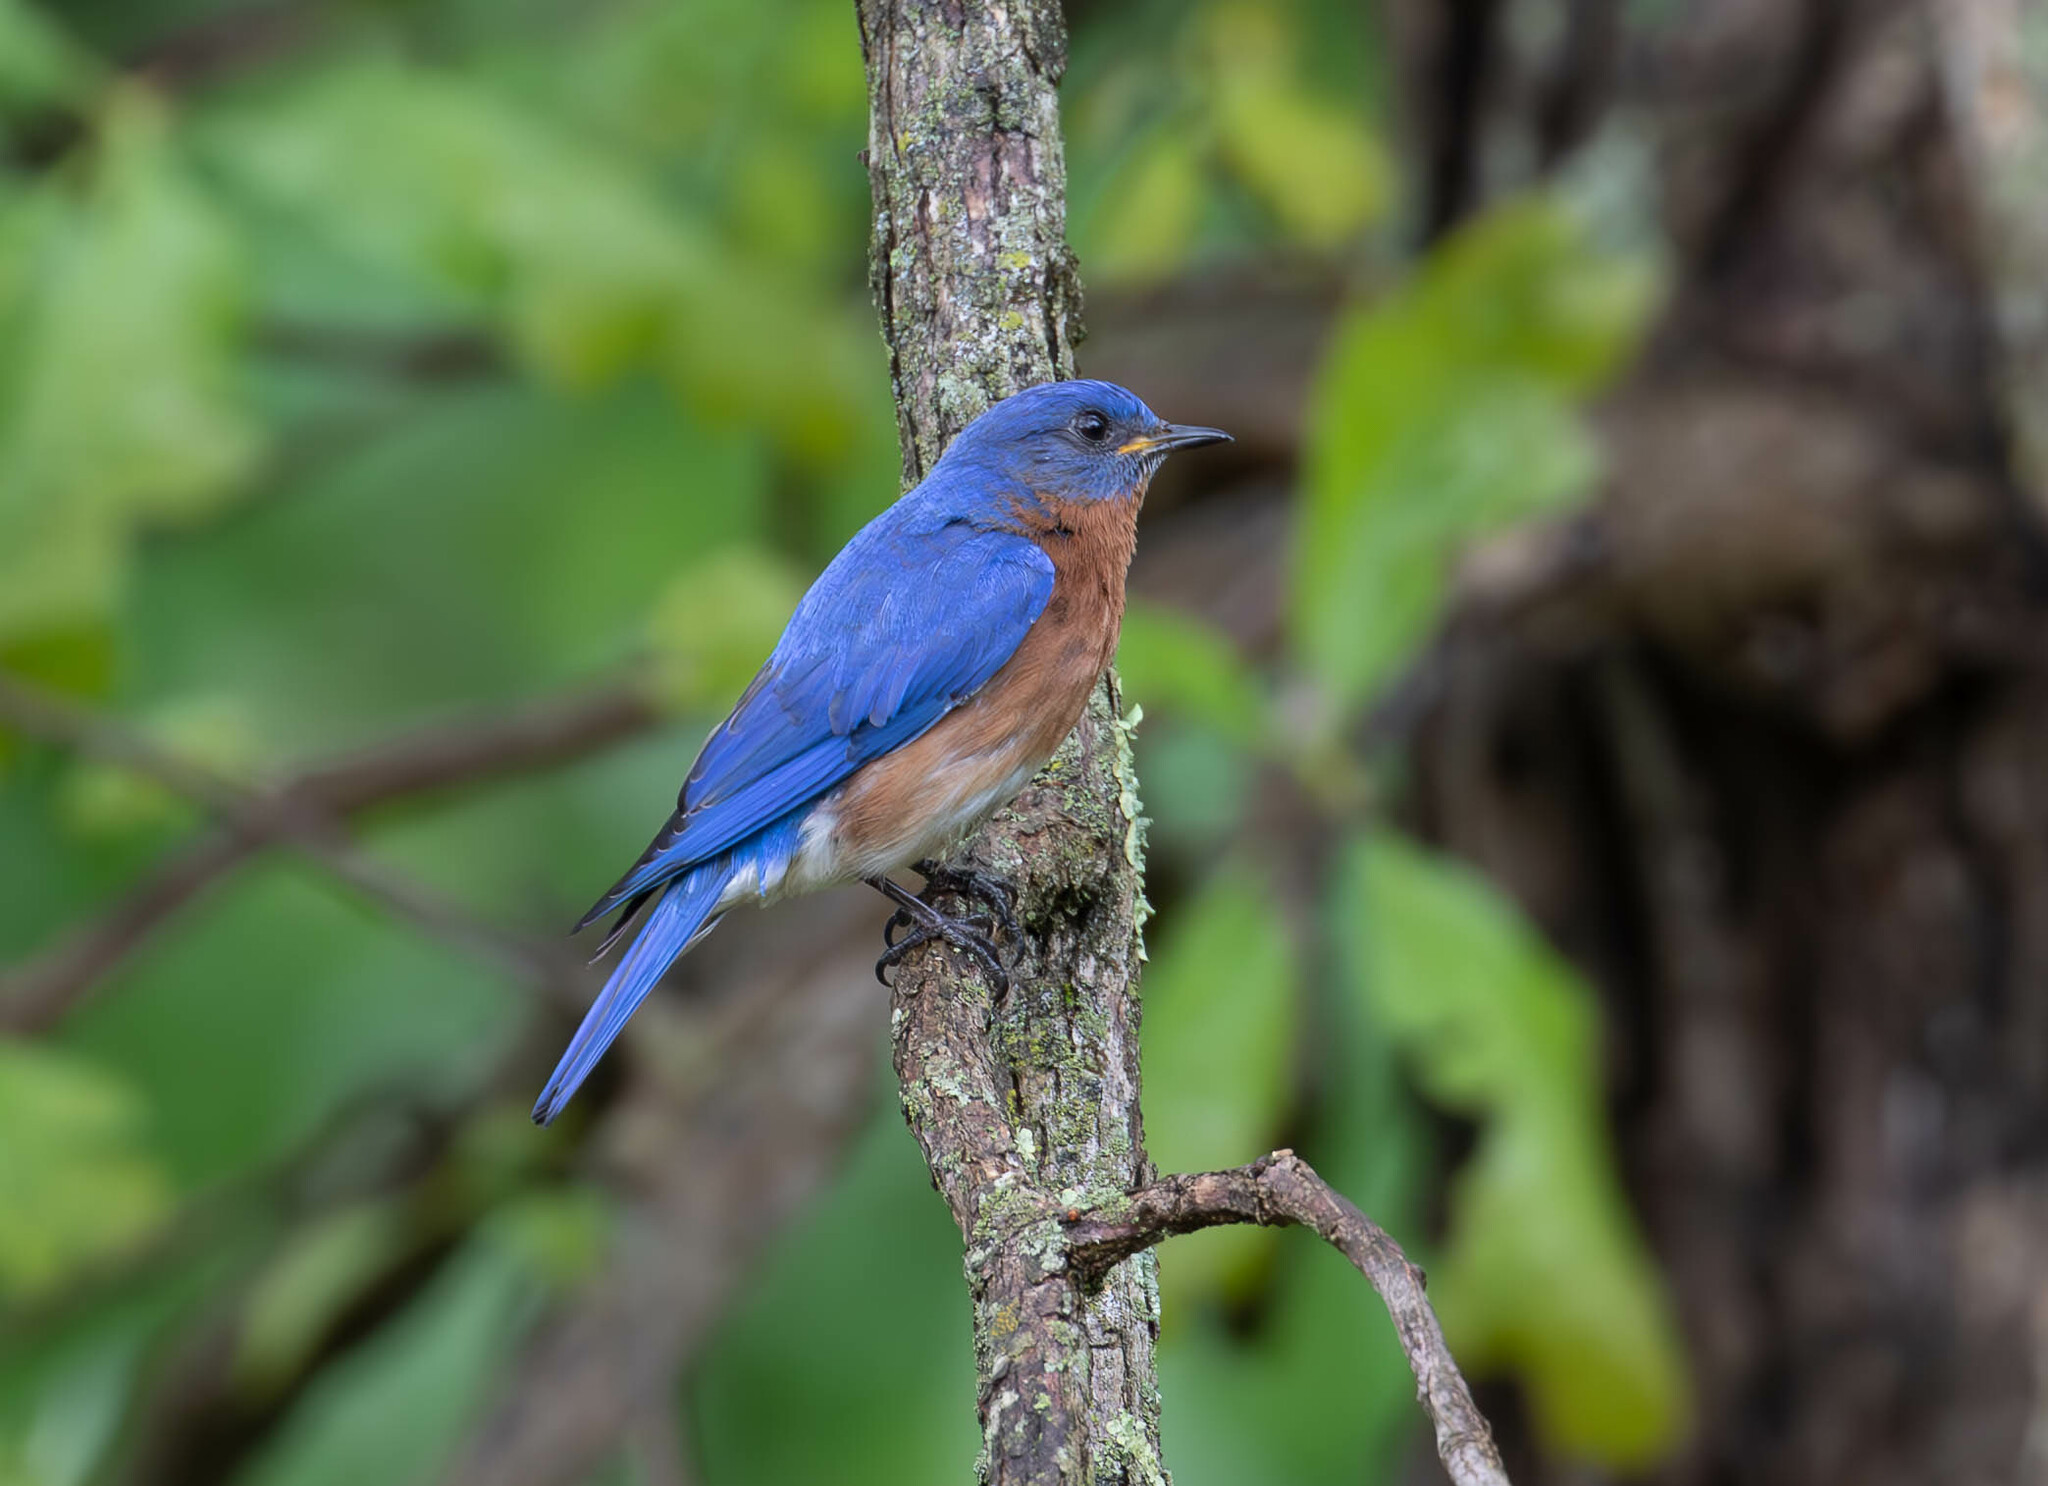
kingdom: Animalia
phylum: Chordata
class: Aves
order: Passeriformes
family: Turdidae
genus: Sialia
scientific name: Sialia sialis
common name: Eastern bluebird
